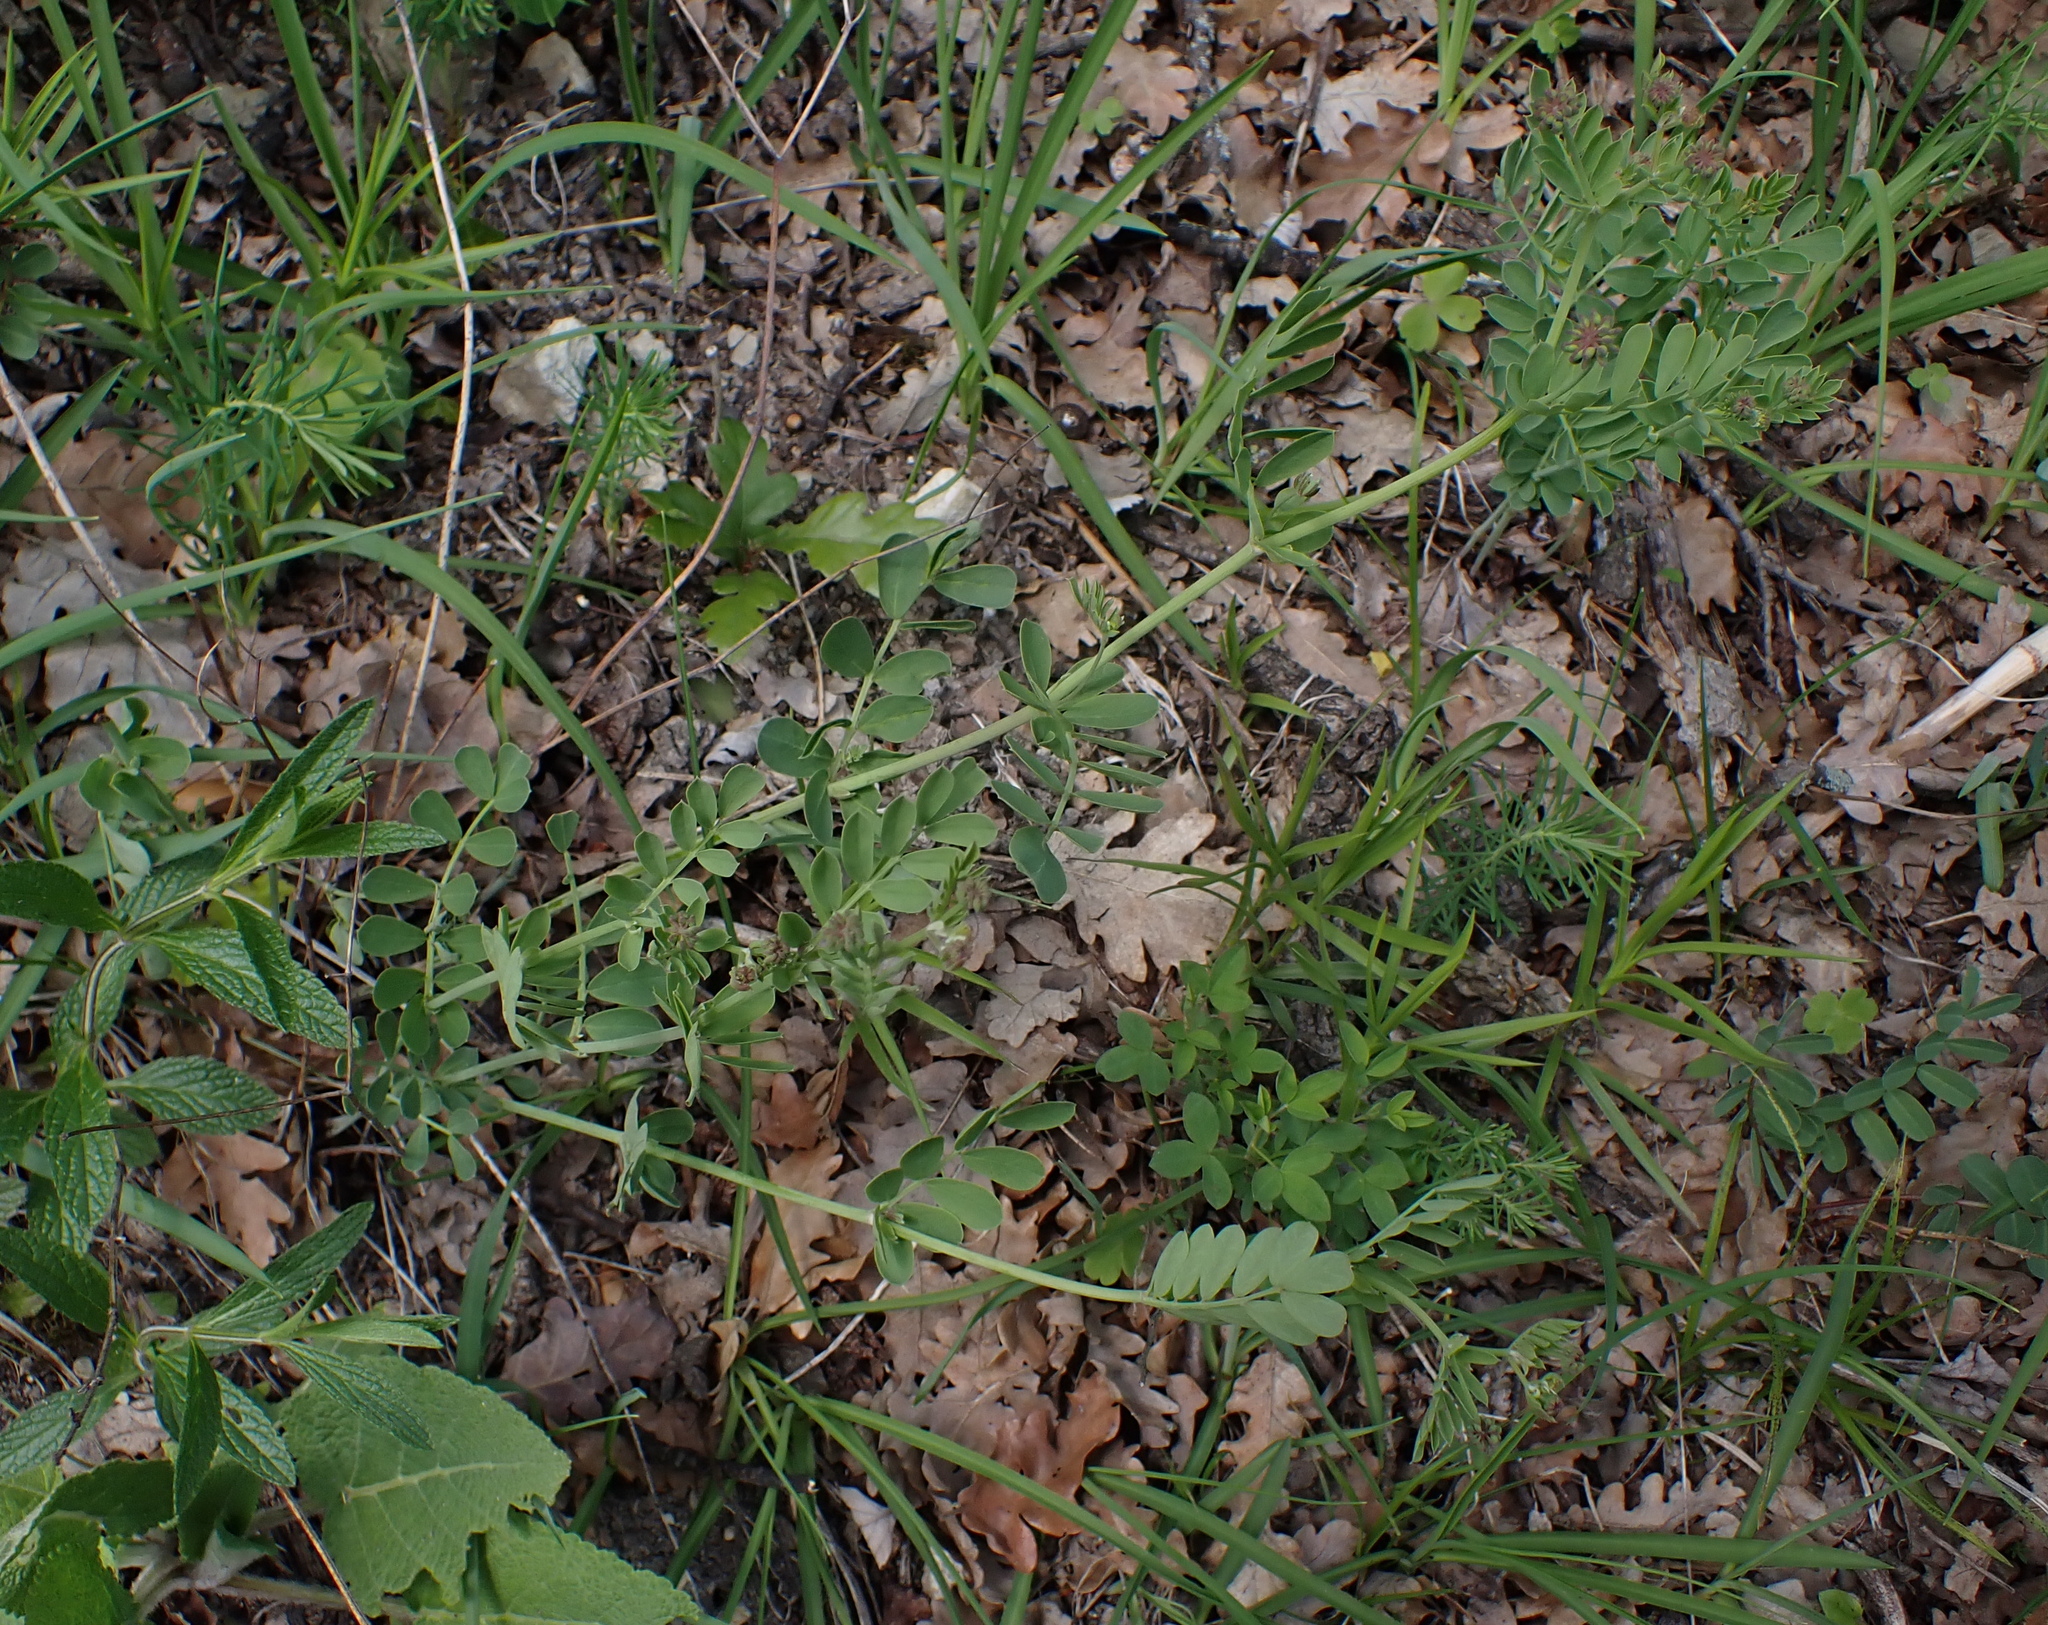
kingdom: Plantae
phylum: Tracheophyta
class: Magnoliopsida
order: Fabales
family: Fabaceae
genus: Coronilla
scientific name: Coronilla coronata
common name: Scorpion-vetch
